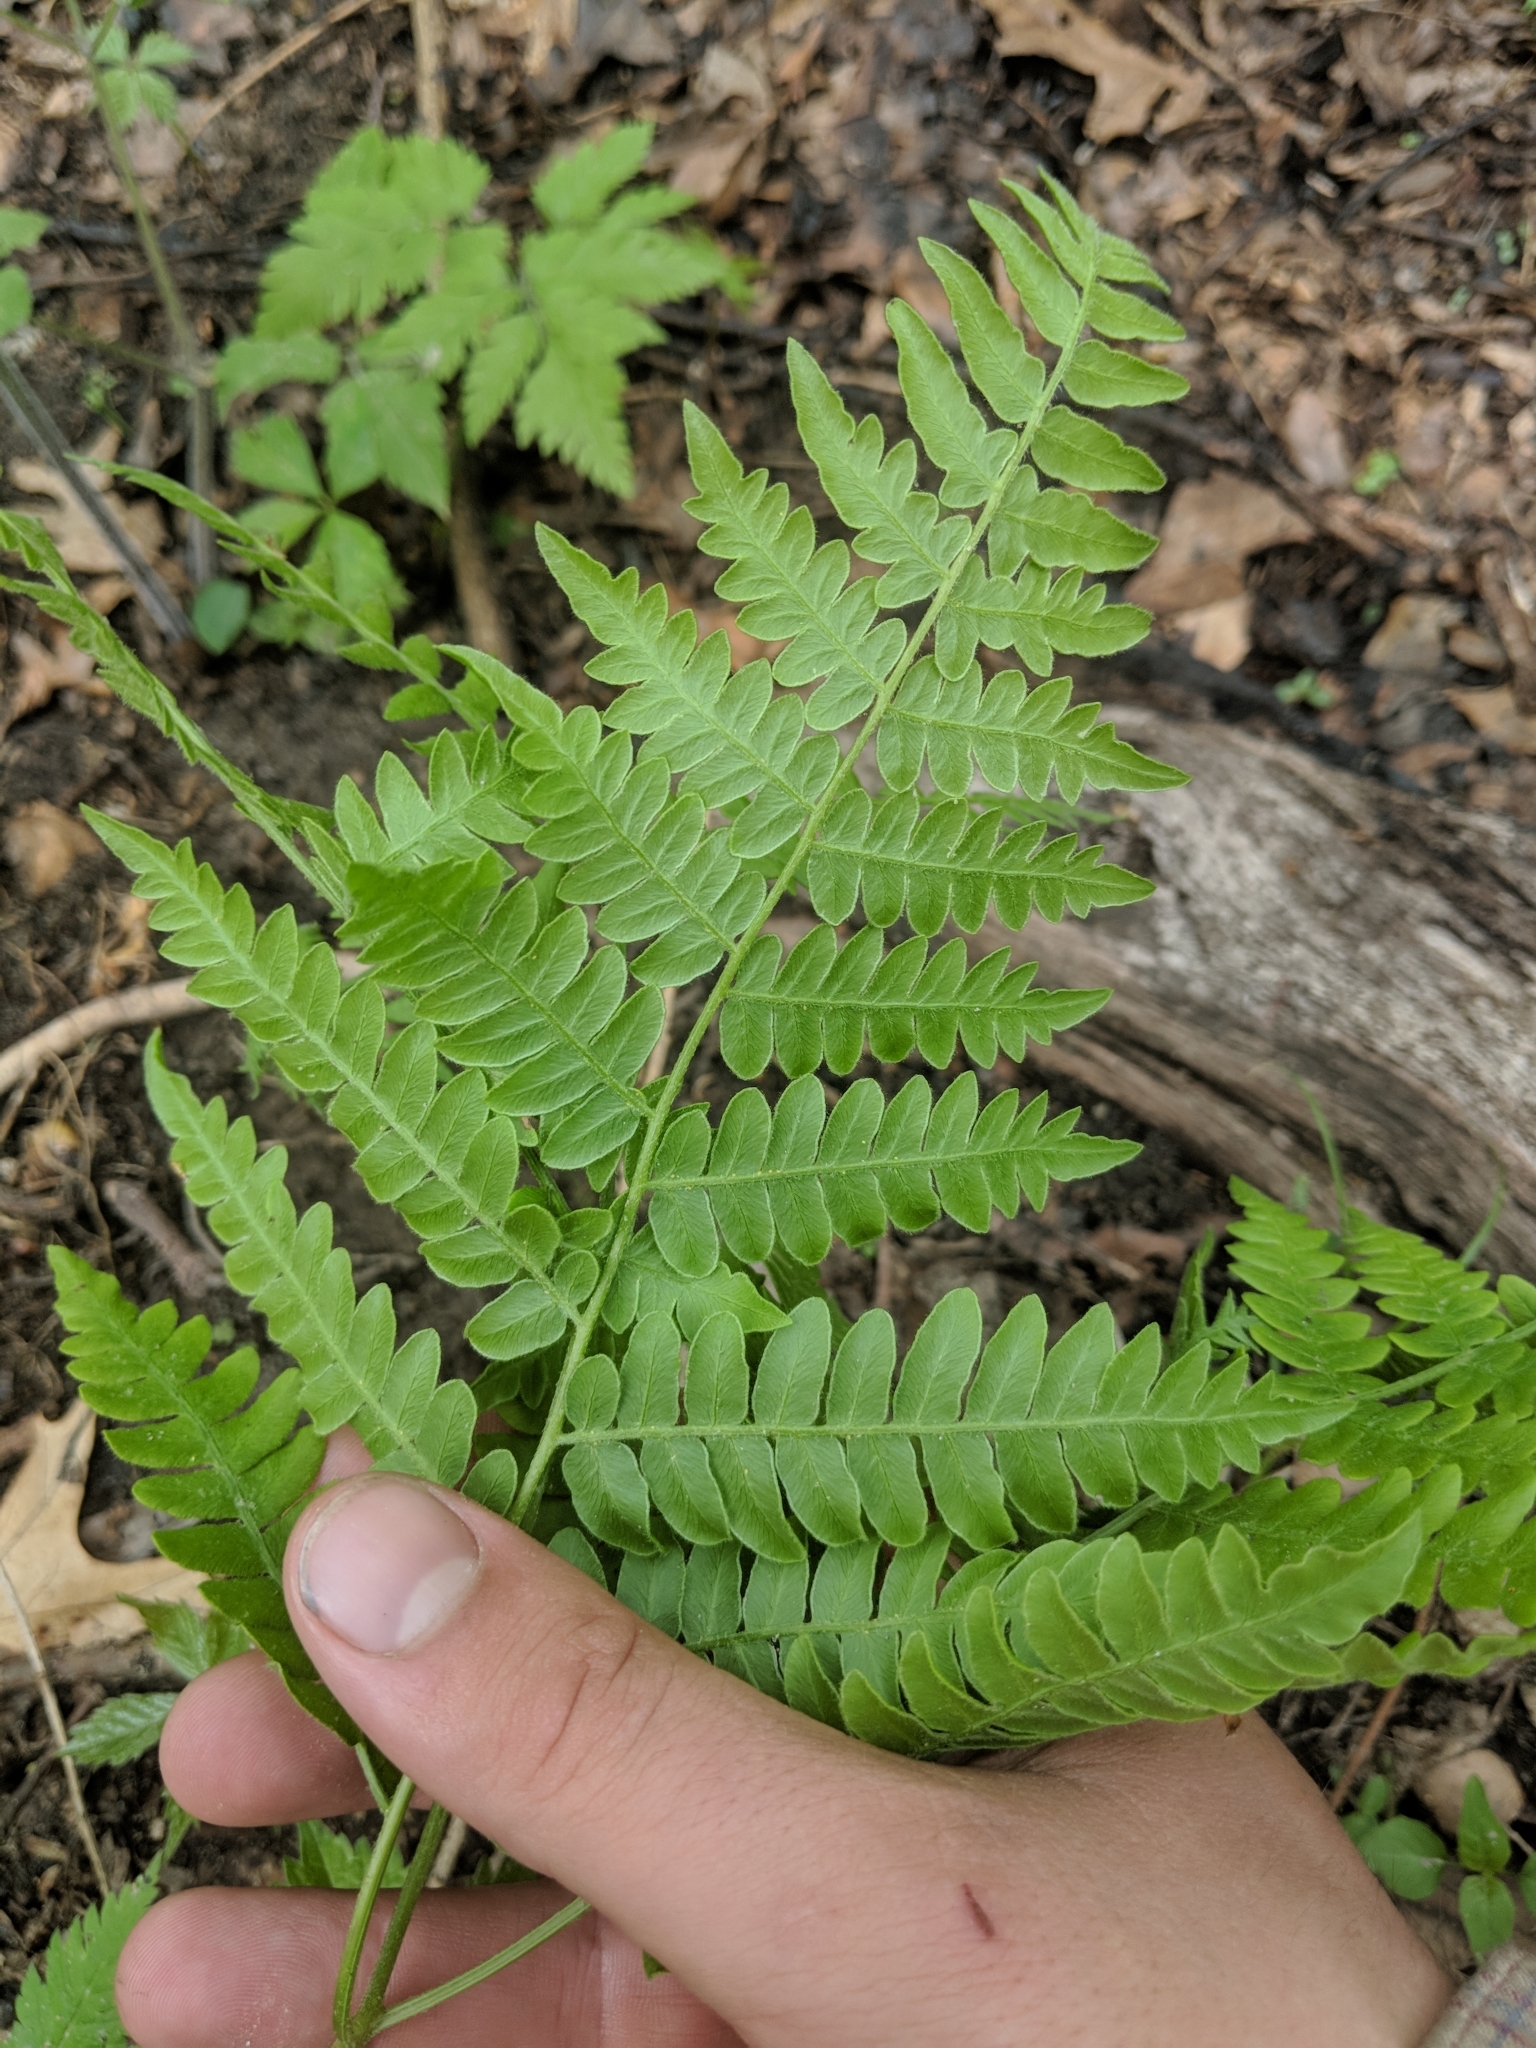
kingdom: Plantae
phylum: Tracheophyta
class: Polypodiopsida
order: Polypodiales
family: Dennstaedtiaceae
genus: Pteridium
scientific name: Pteridium aquilinum
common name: Bracken
